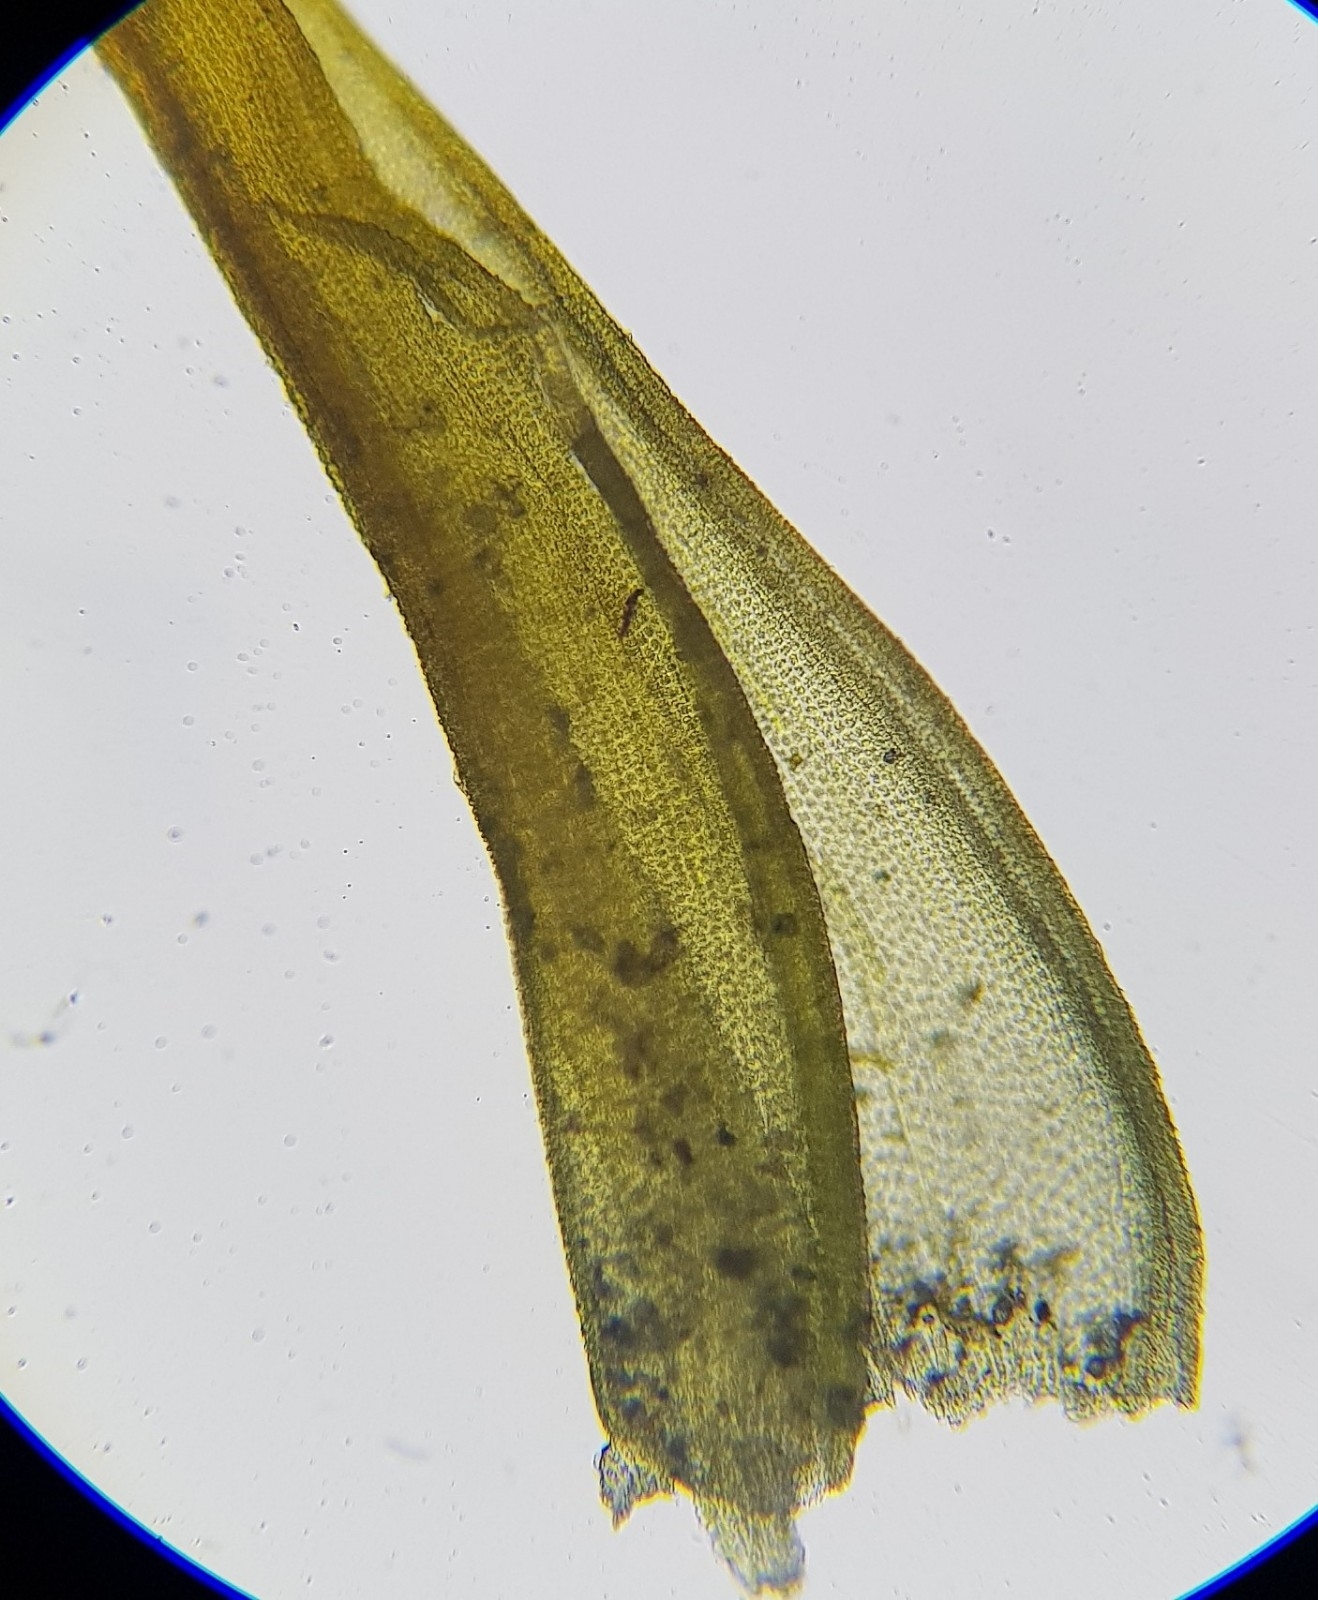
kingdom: Plantae
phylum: Bryophyta
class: Bryopsida
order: Pottiales
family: Pottiaceae
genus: Geheebia
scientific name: Geheebia fallax
